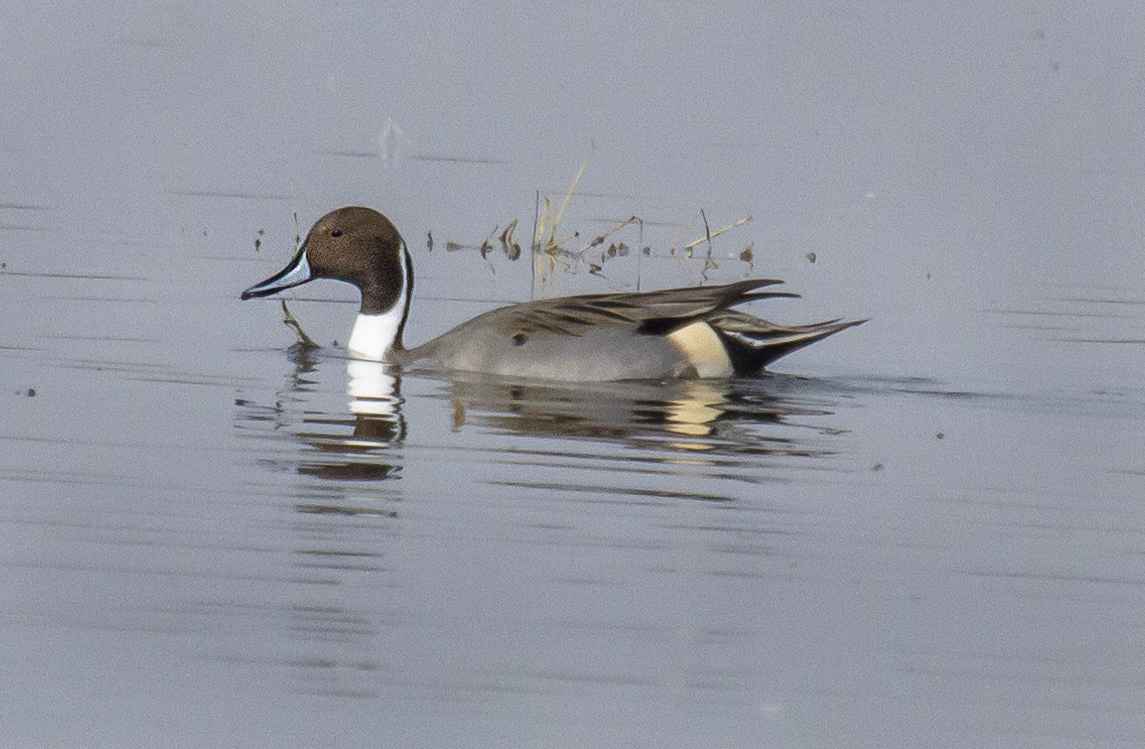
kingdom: Animalia
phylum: Chordata
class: Aves
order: Anseriformes
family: Anatidae
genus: Anas
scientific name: Anas acuta
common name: Northern pintail
